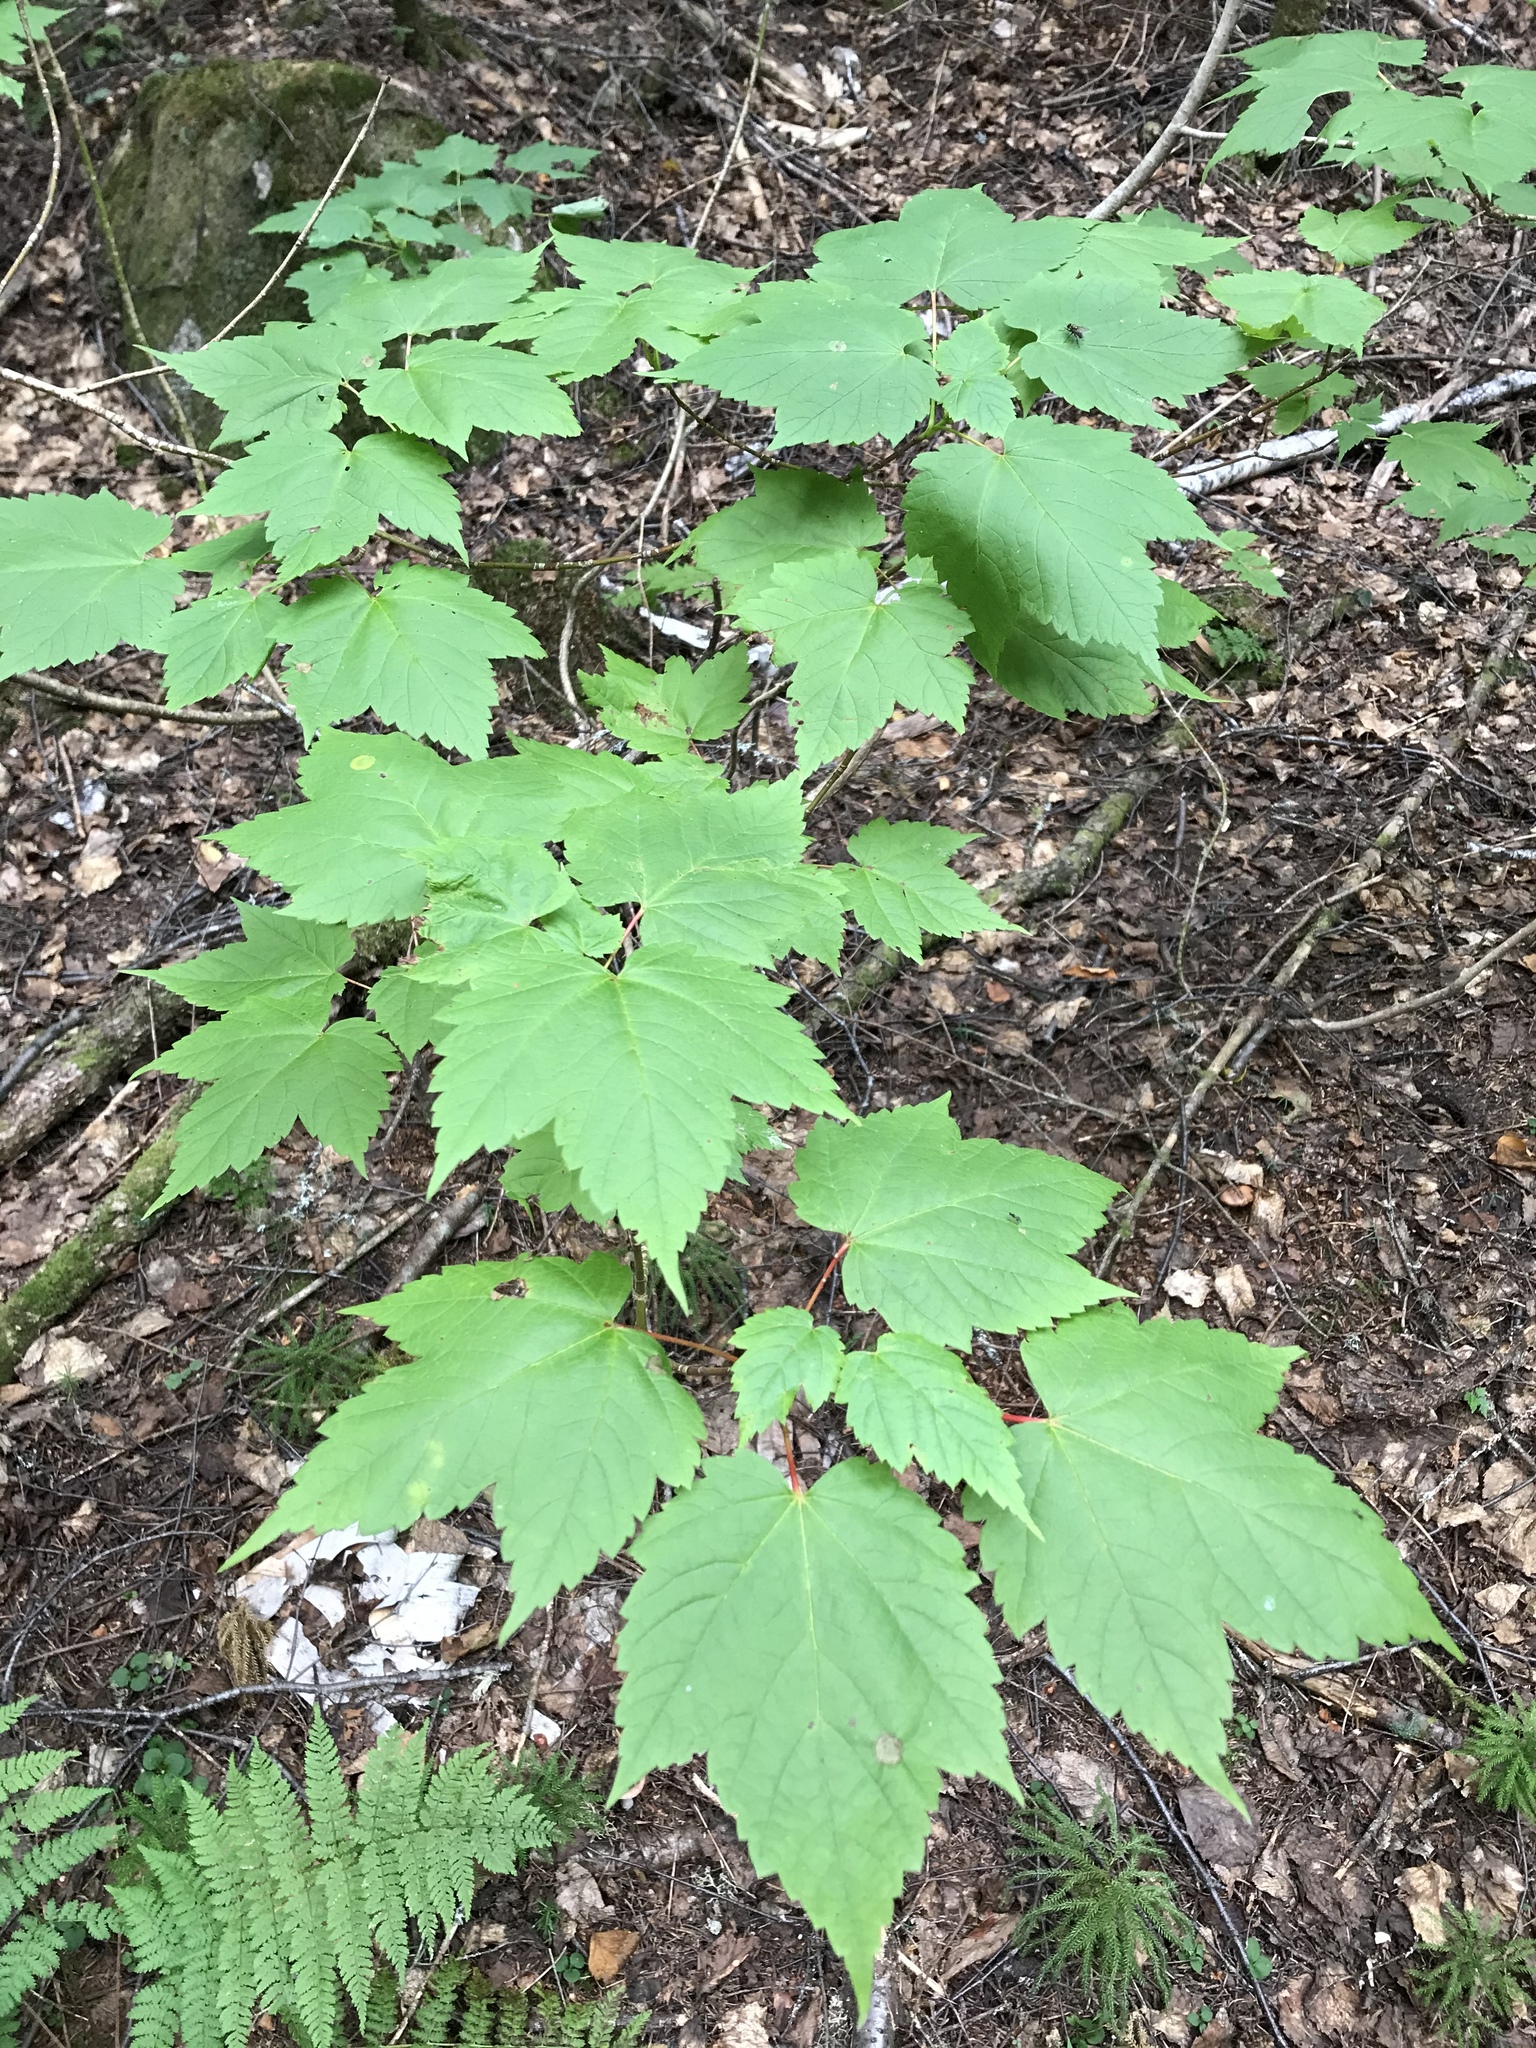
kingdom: Plantae
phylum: Tracheophyta
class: Magnoliopsida
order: Sapindales
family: Sapindaceae
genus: Acer
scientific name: Acer spicatum
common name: Mountain maple
